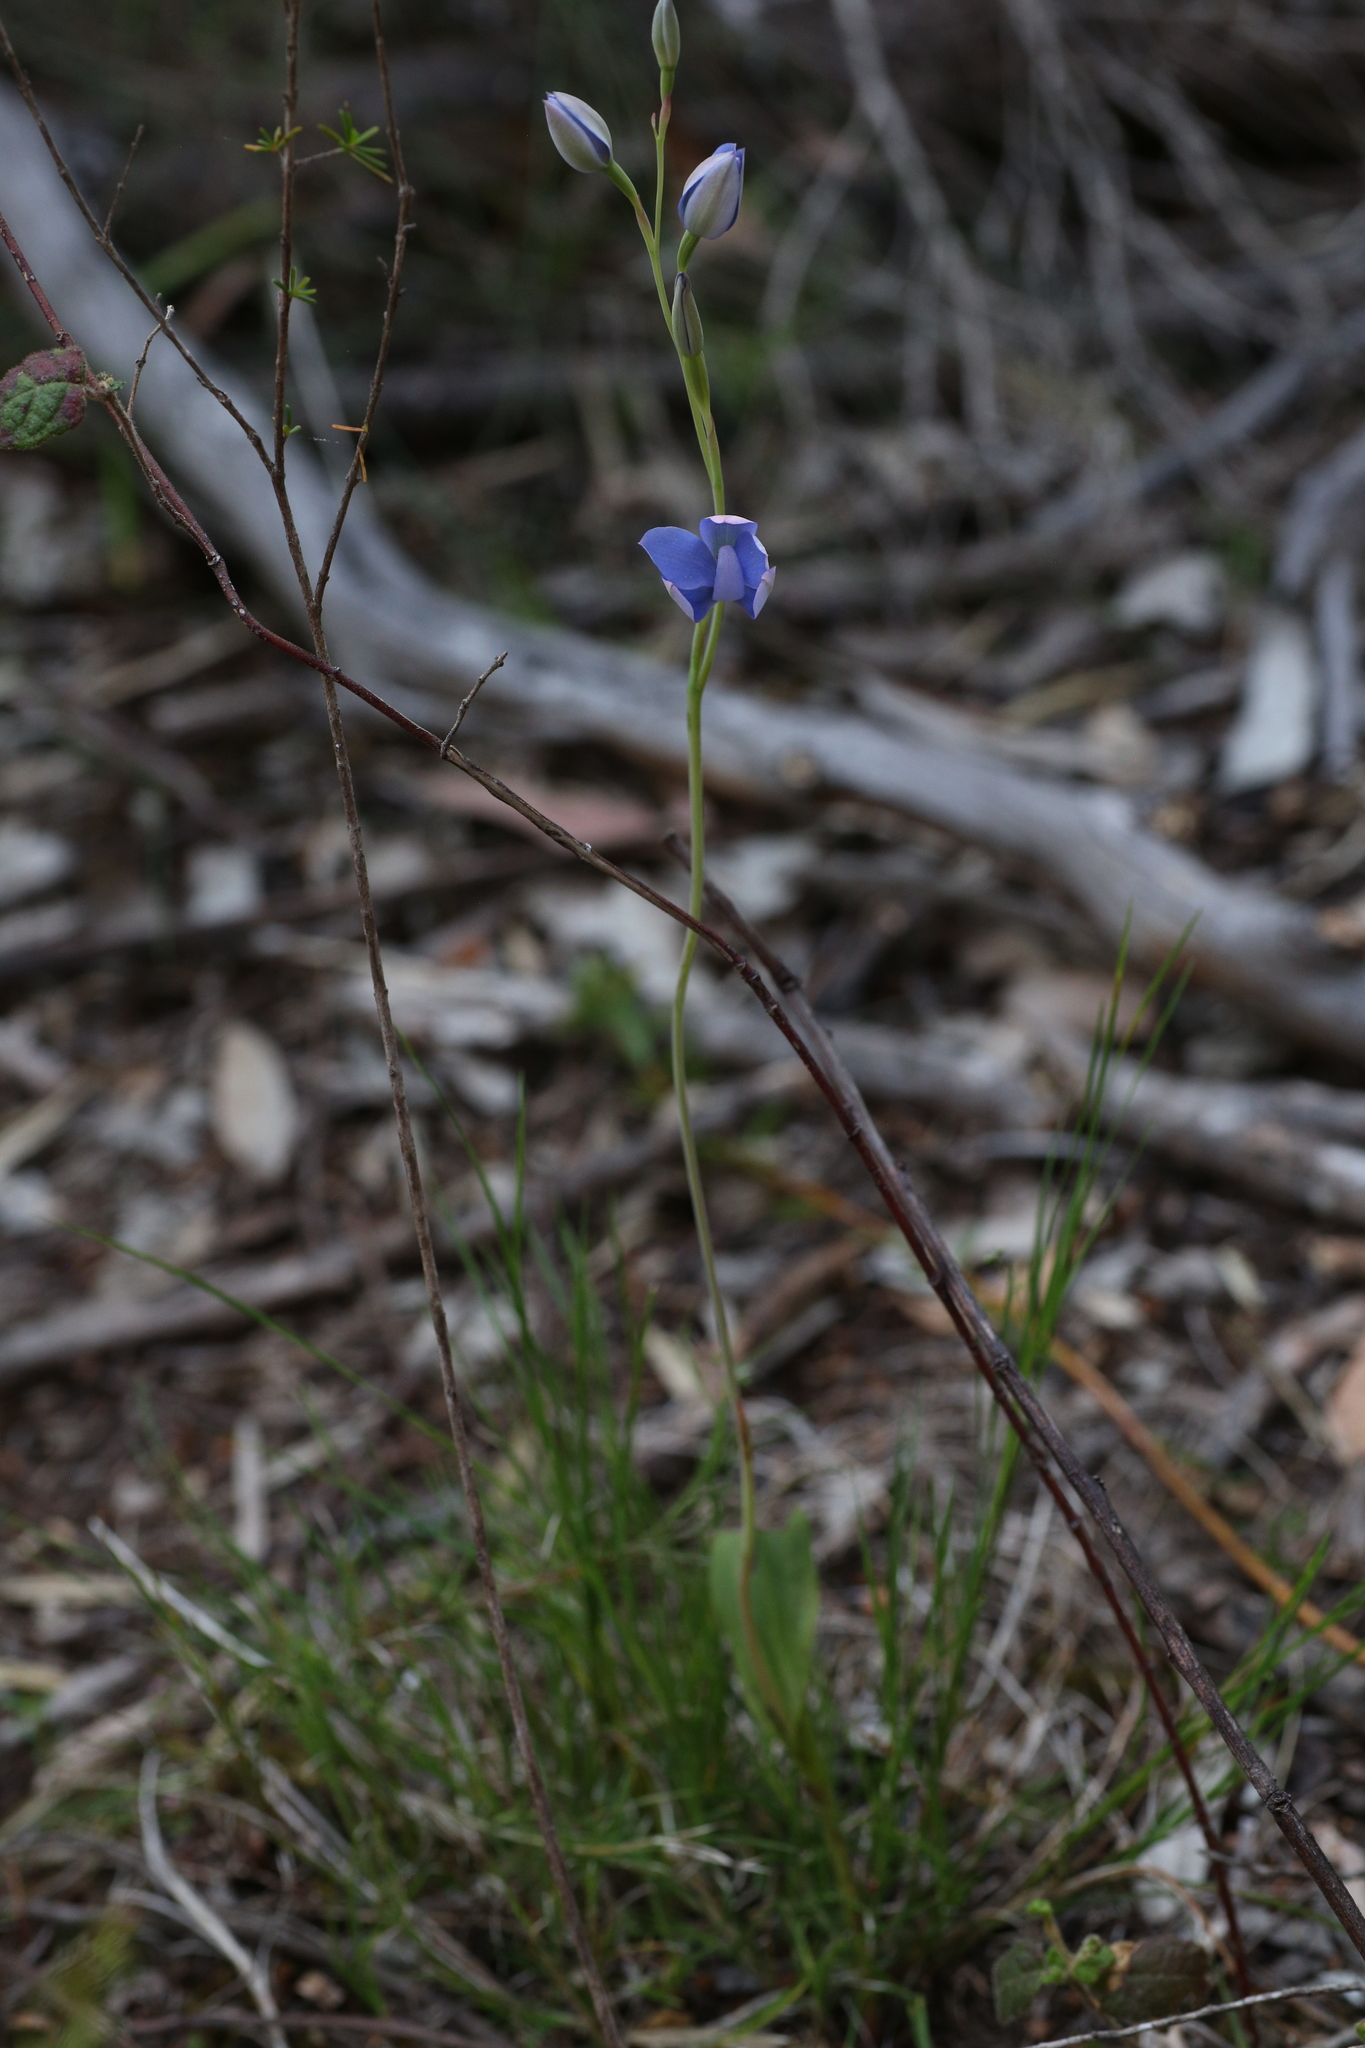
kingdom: Plantae
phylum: Tracheophyta
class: Liliopsida
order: Asparagales
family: Orchidaceae
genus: Thelymitra
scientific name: Thelymitra crinita
